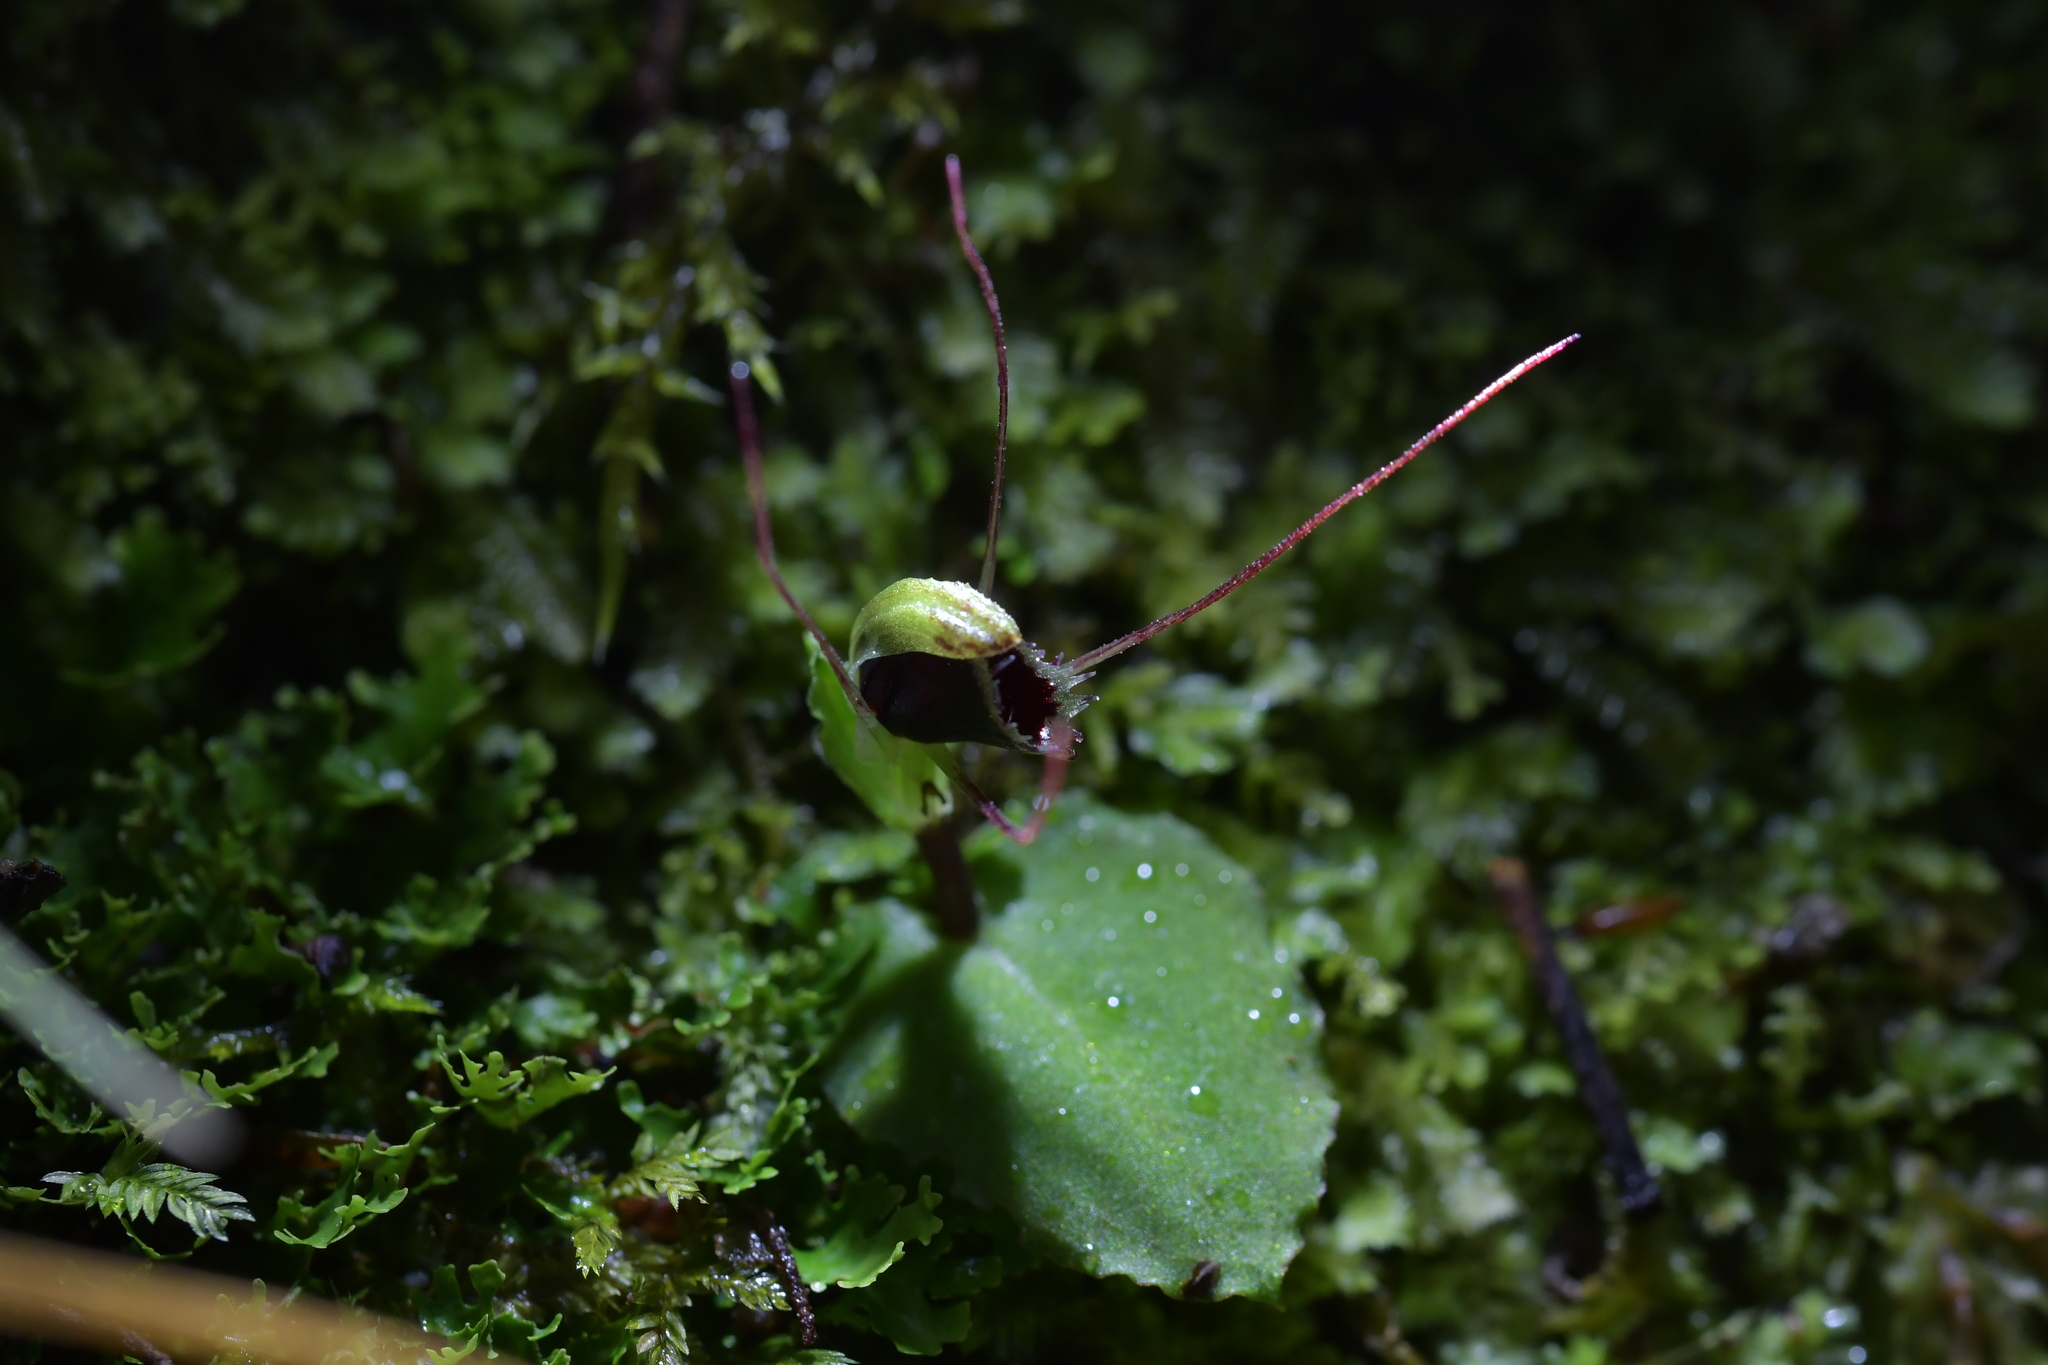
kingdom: Plantae
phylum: Tracheophyta
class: Liliopsida
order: Asparagales
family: Orchidaceae
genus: Corybas
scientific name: Corybas oblongus
